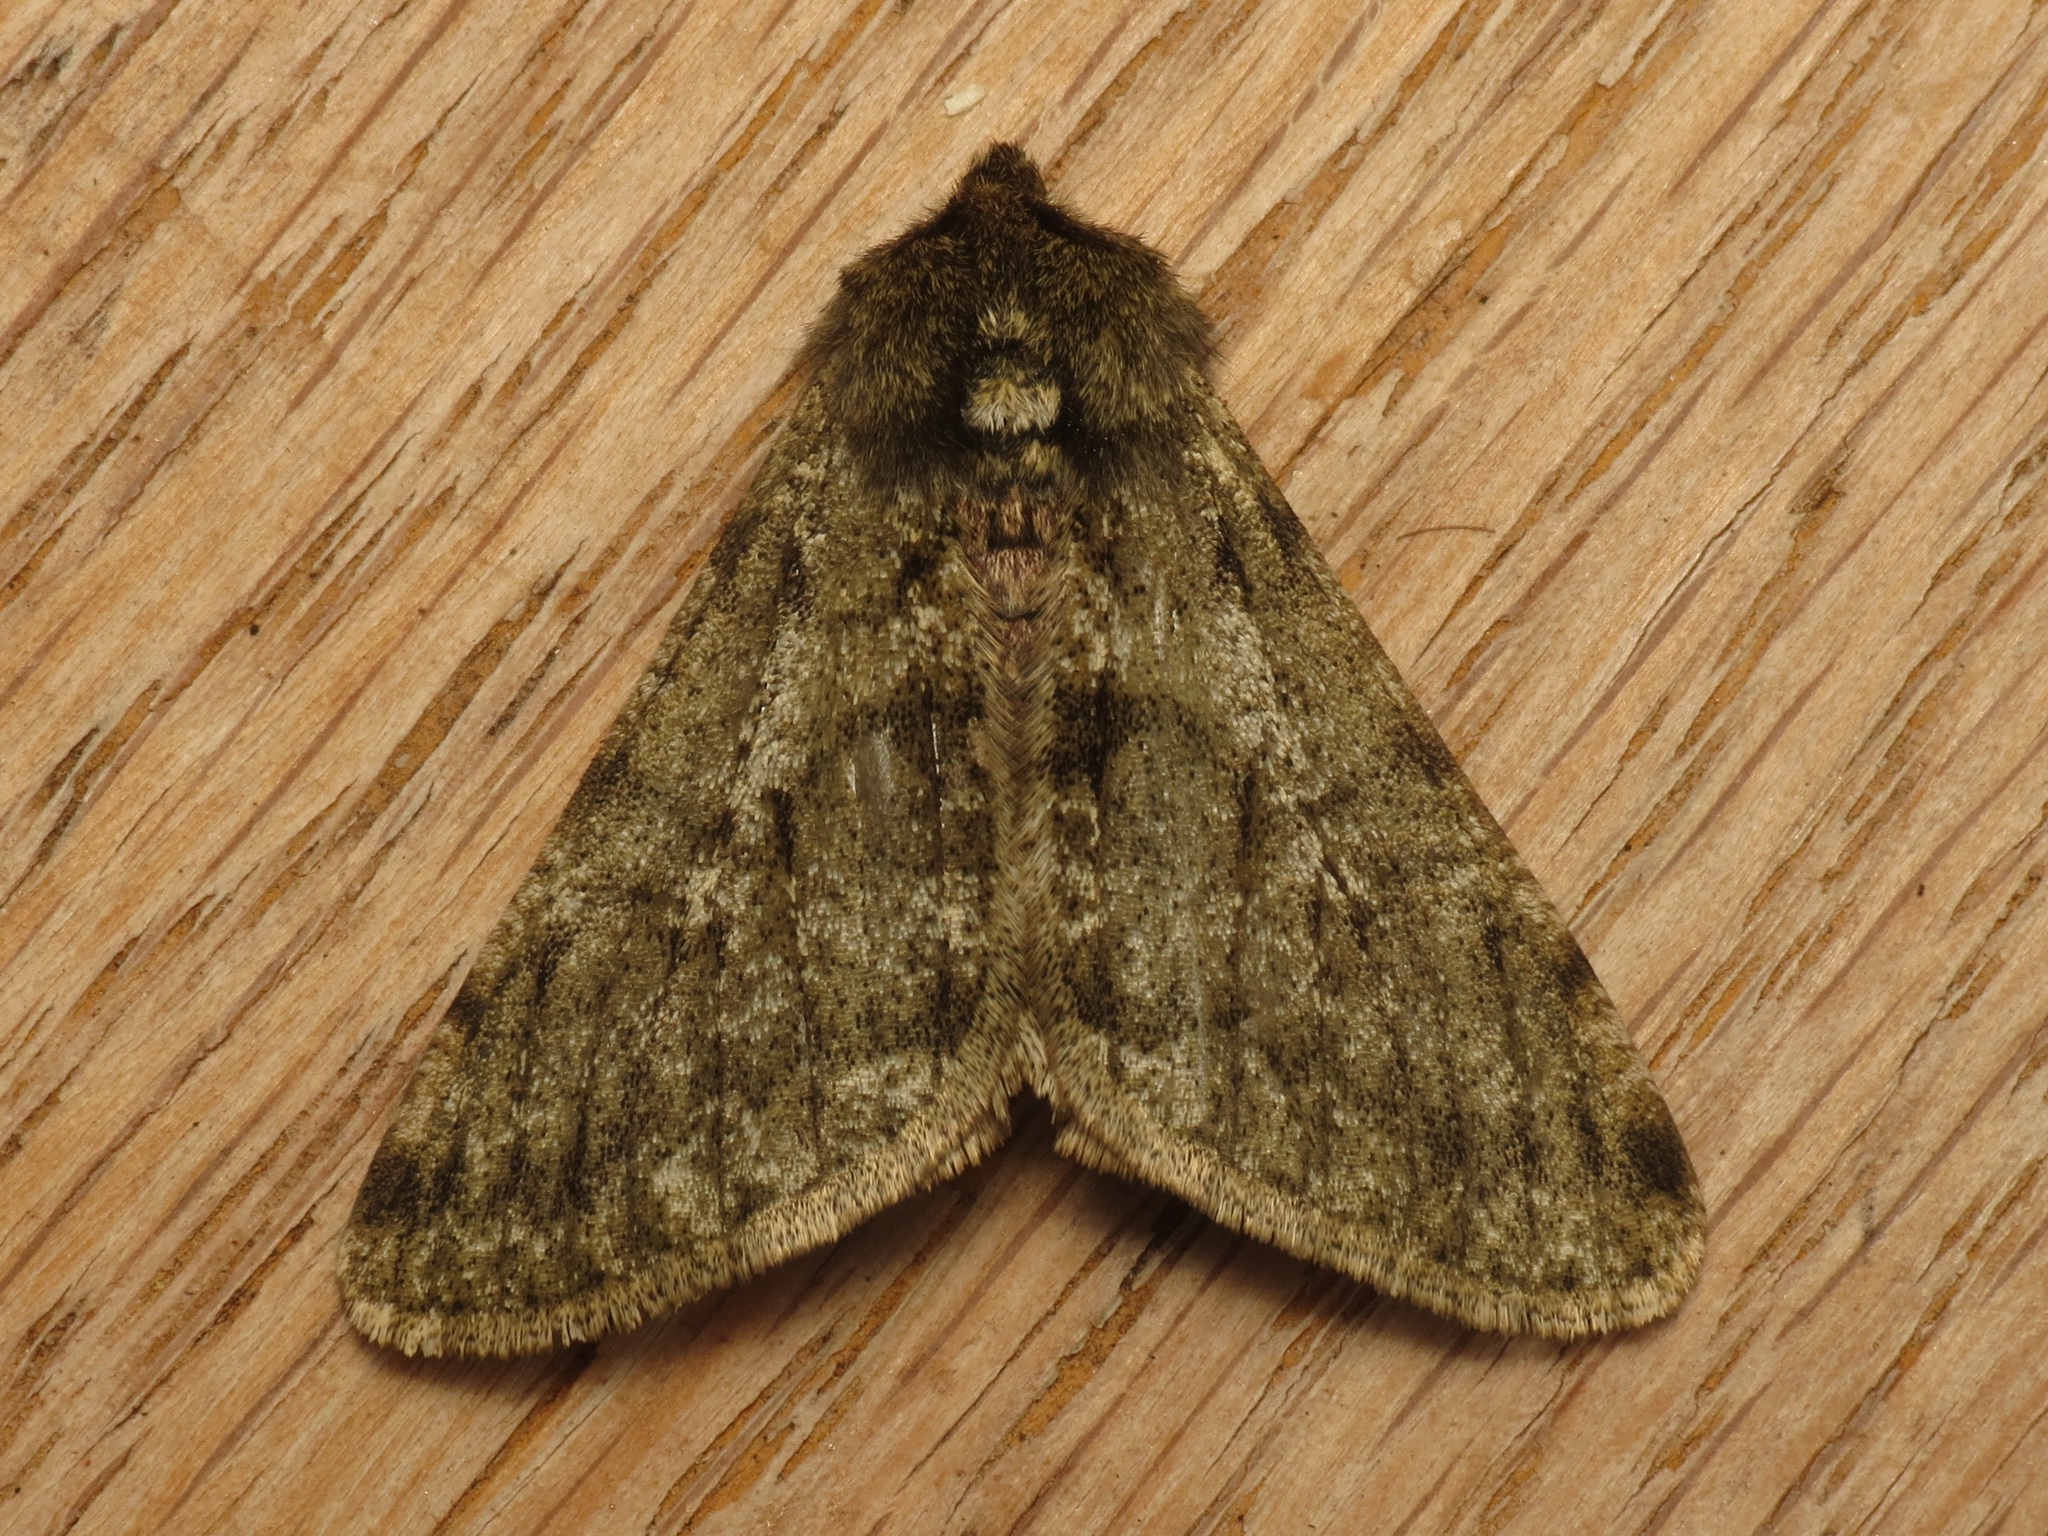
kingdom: Animalia
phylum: Arthropoda
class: Insecta
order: Lepidoptera
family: Geometridae
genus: Phigalia
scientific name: Phigalia pilosaria
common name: Pale brindled beauty
